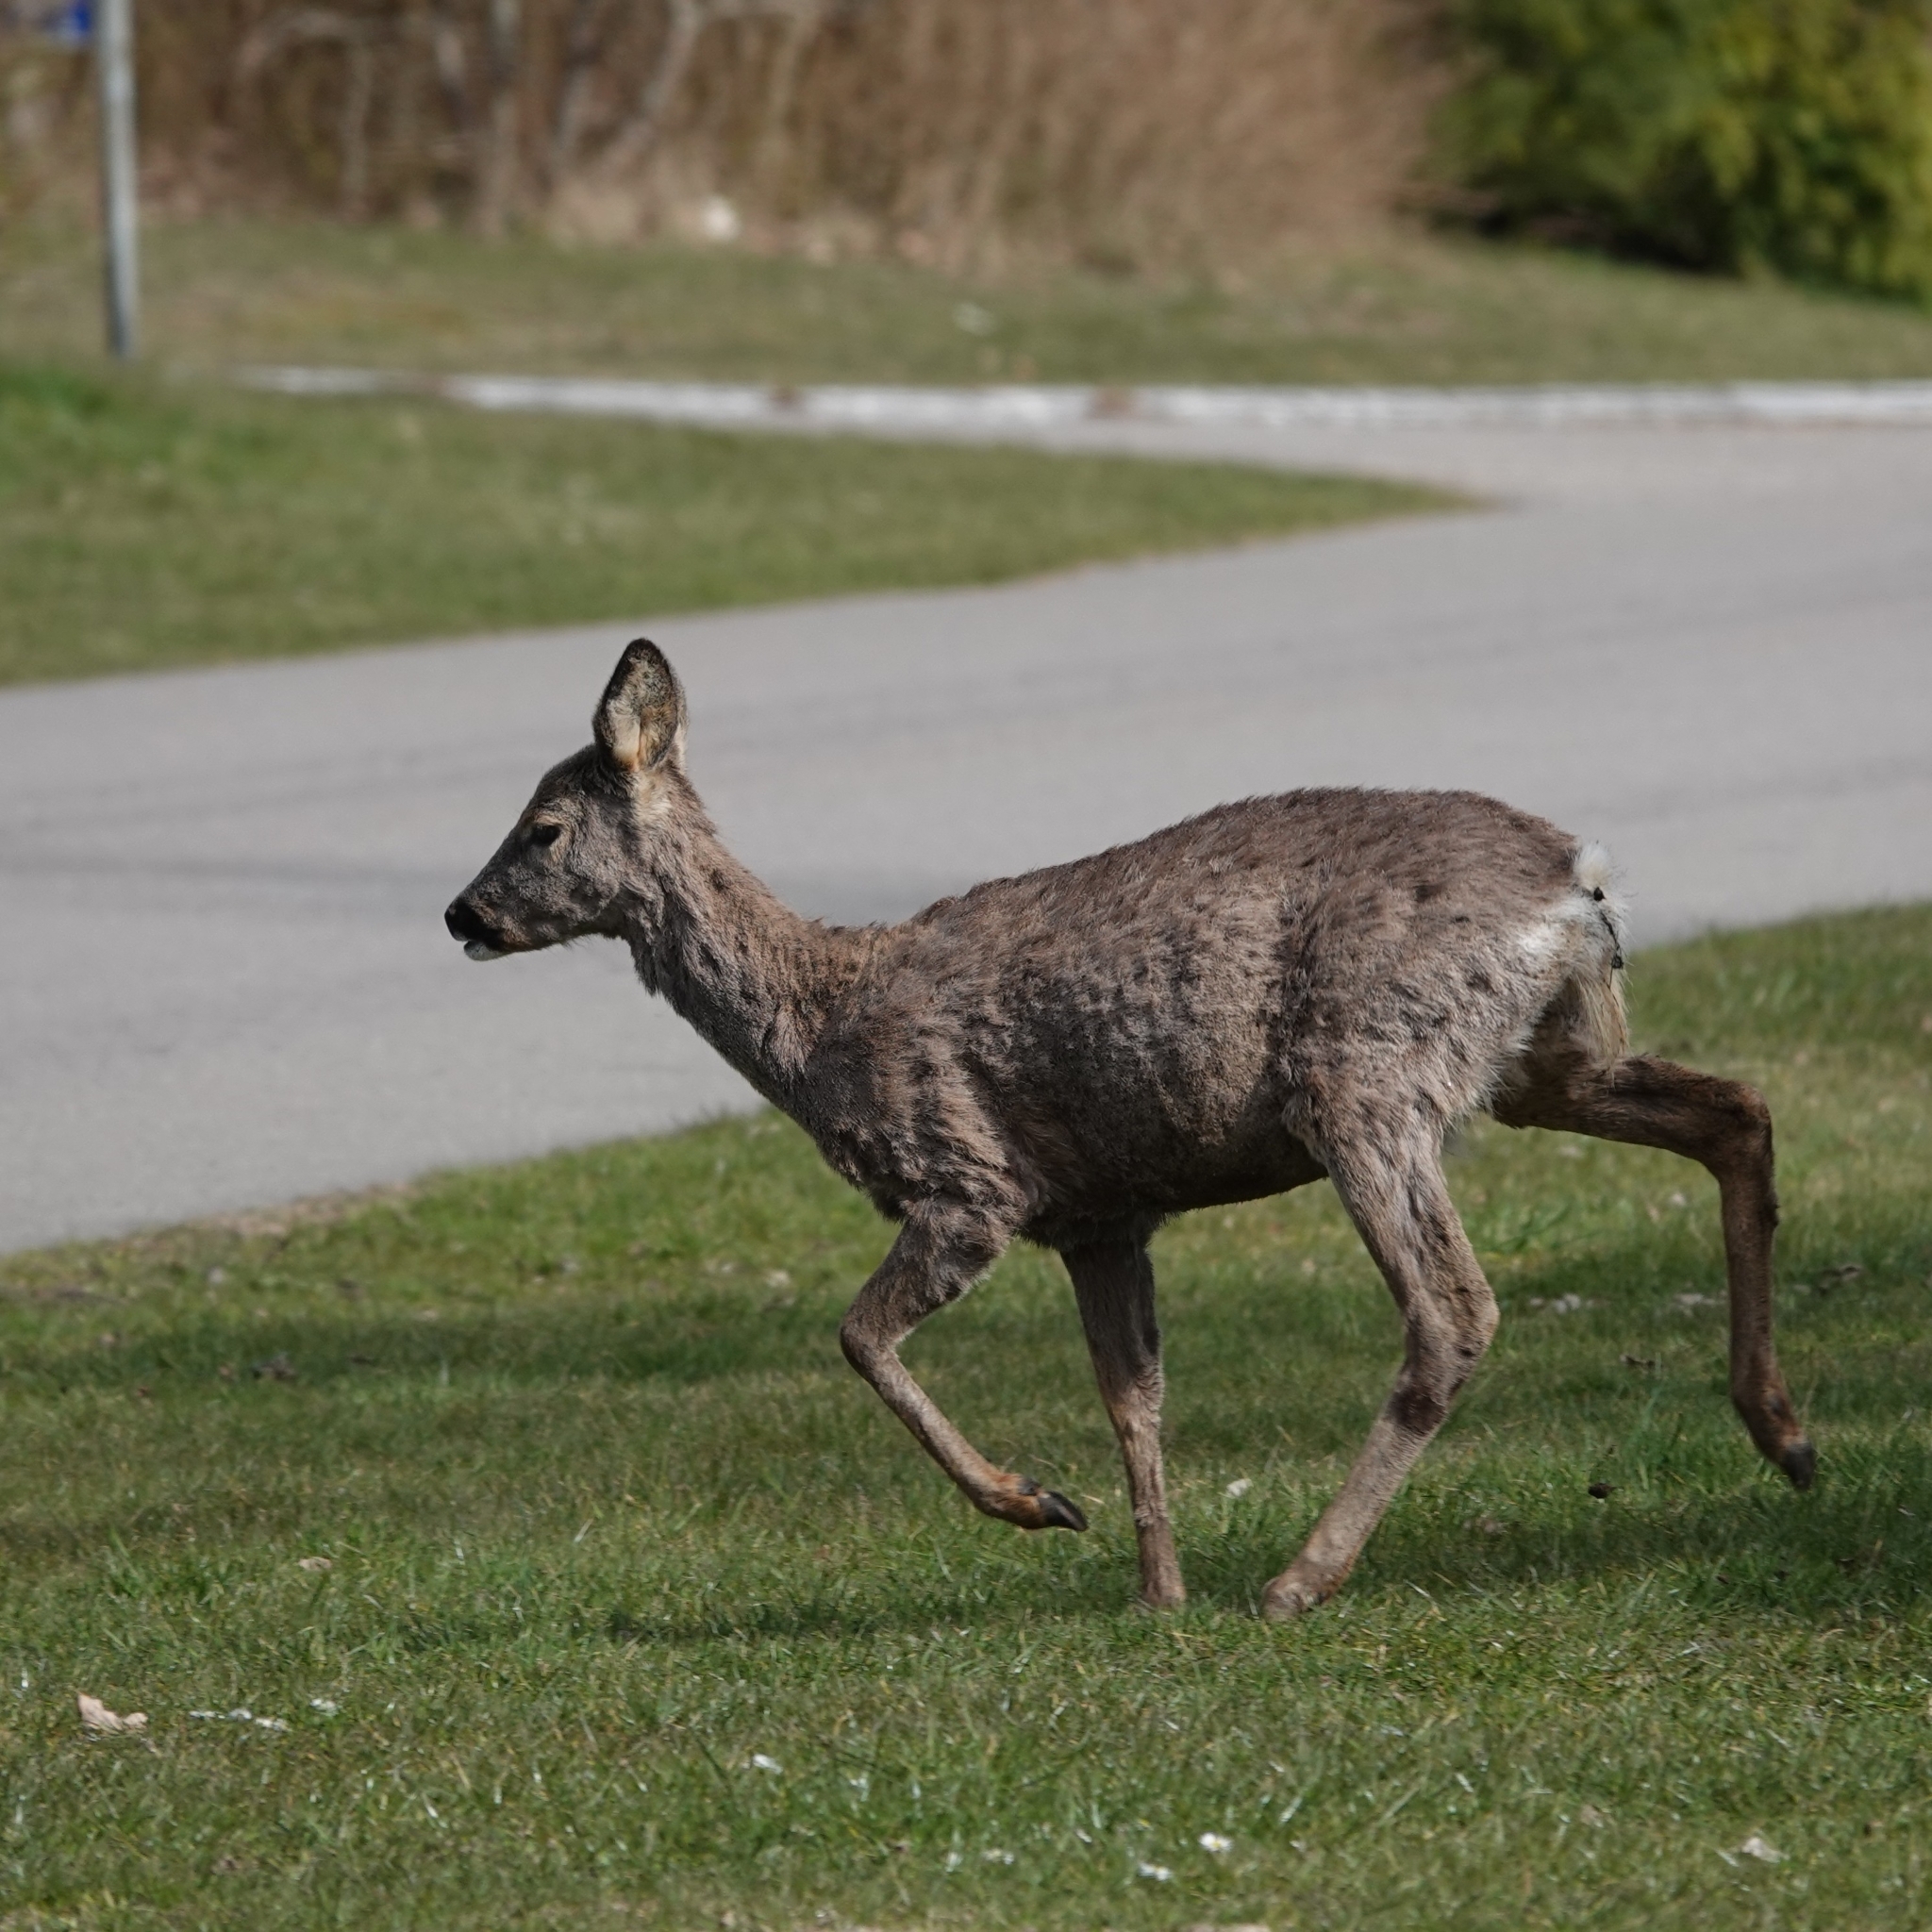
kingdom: Animalia
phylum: Chordata
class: Mammalia
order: Artiodactyla
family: Cervidae
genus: Capreolus
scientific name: Capreolus capreolus
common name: Western roe deer
